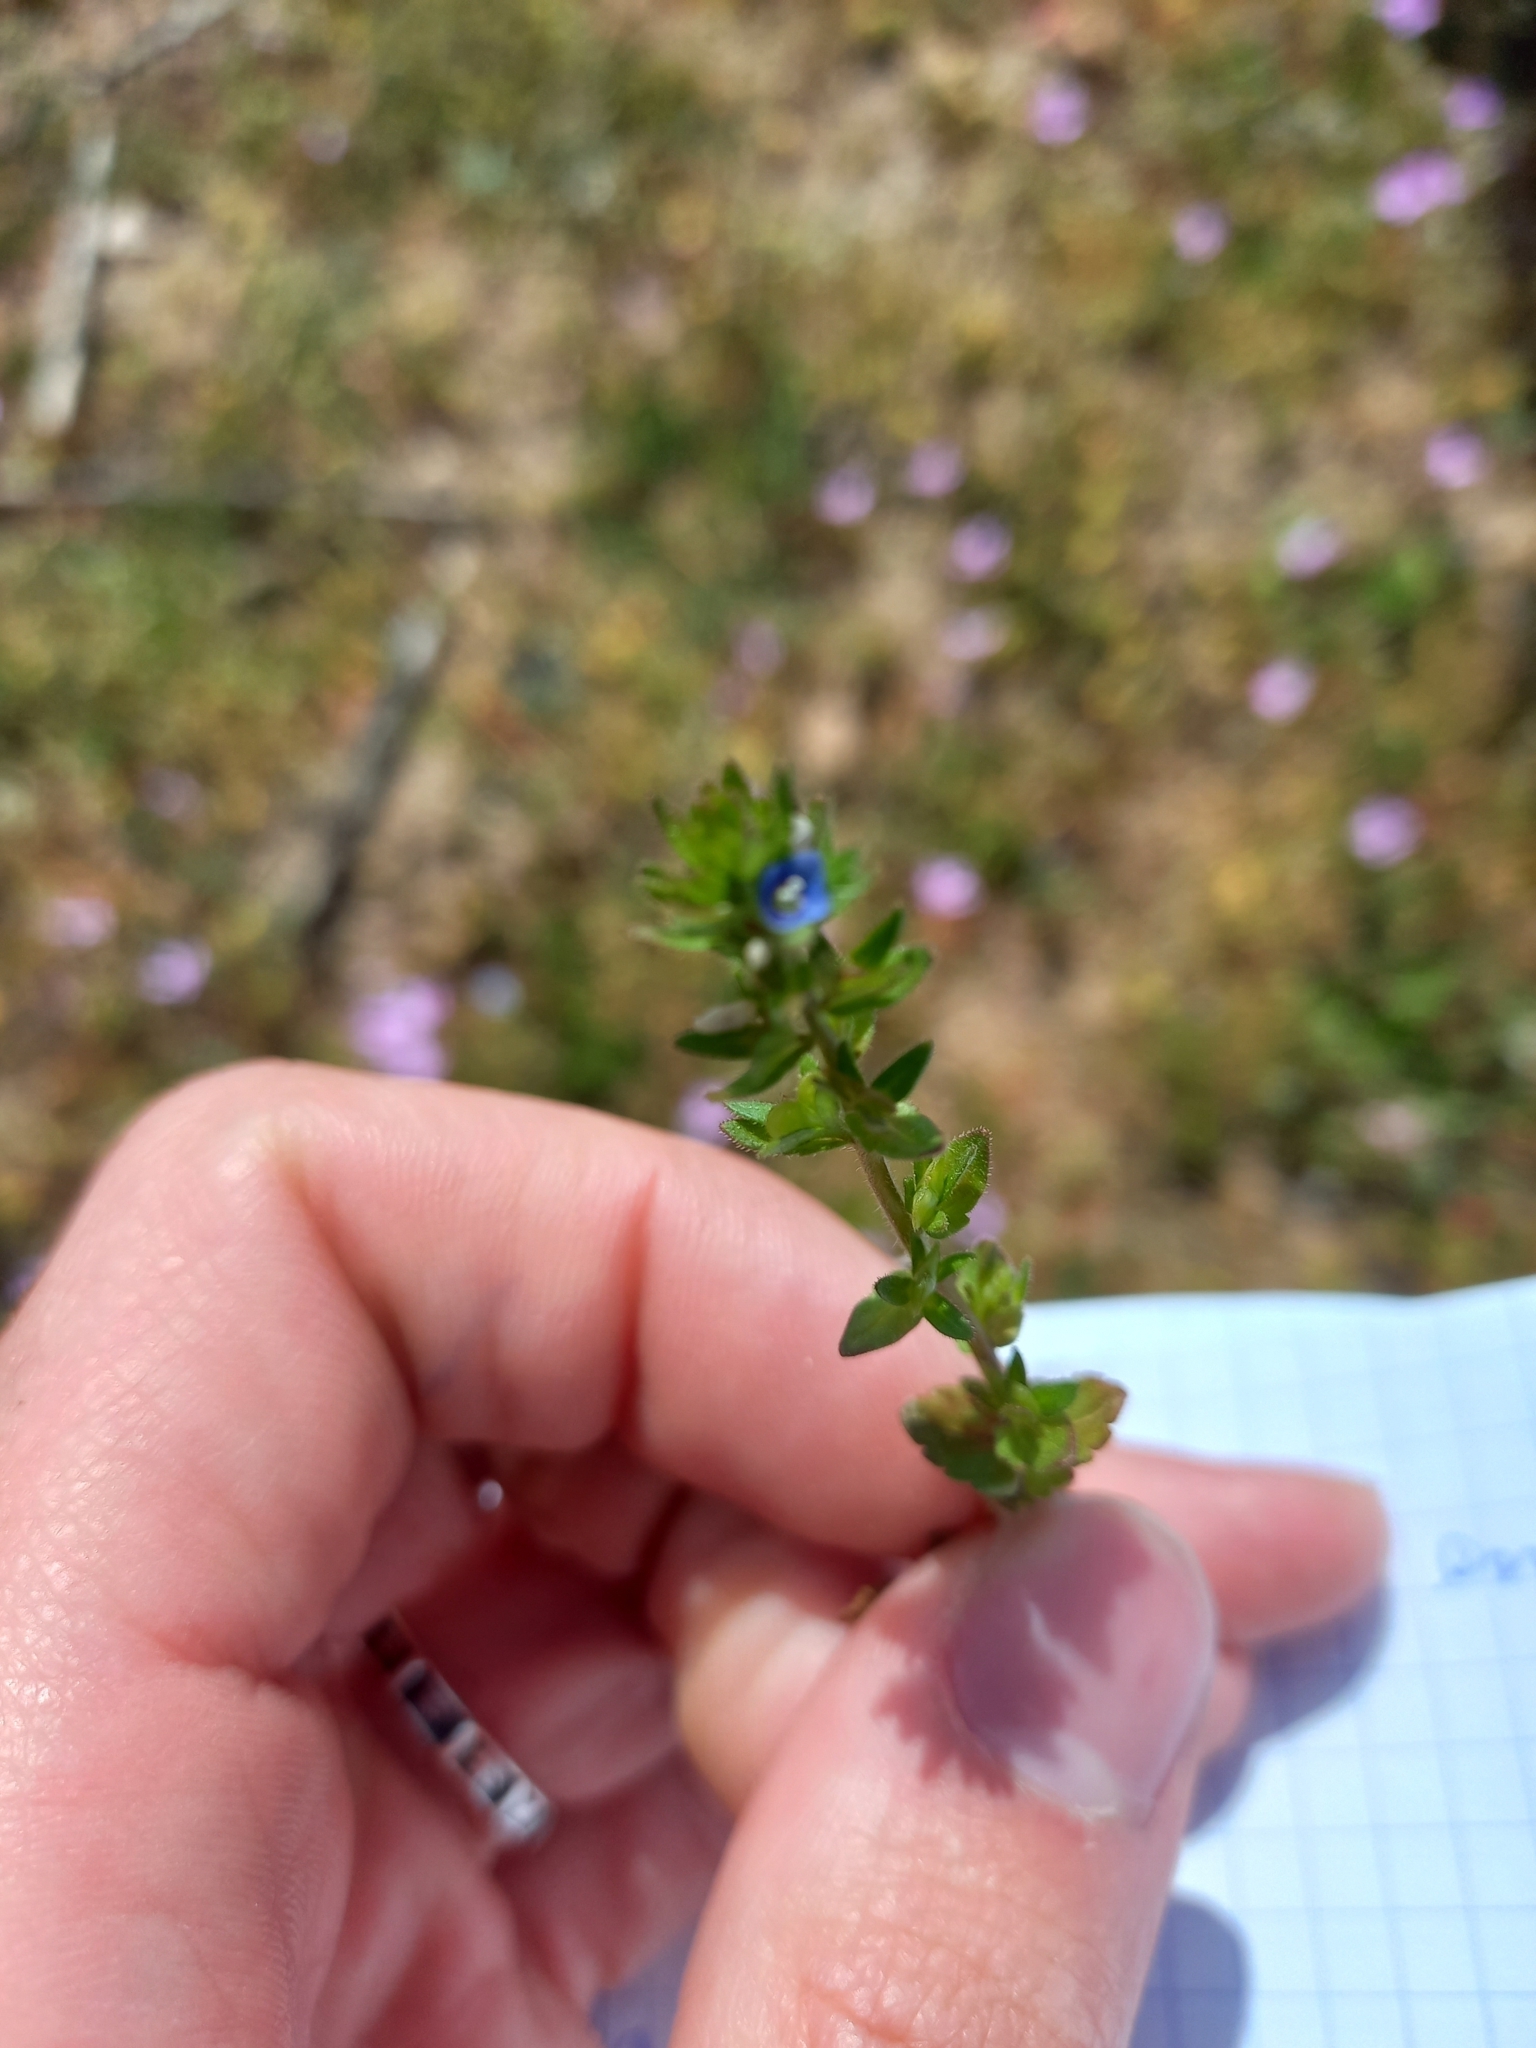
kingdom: Plantae
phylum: Tracheophyta
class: Magnoliopsida
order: Lamiales
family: Plantaginaceae
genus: Veronica
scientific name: Veronica arvensis
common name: Corn speedwell
